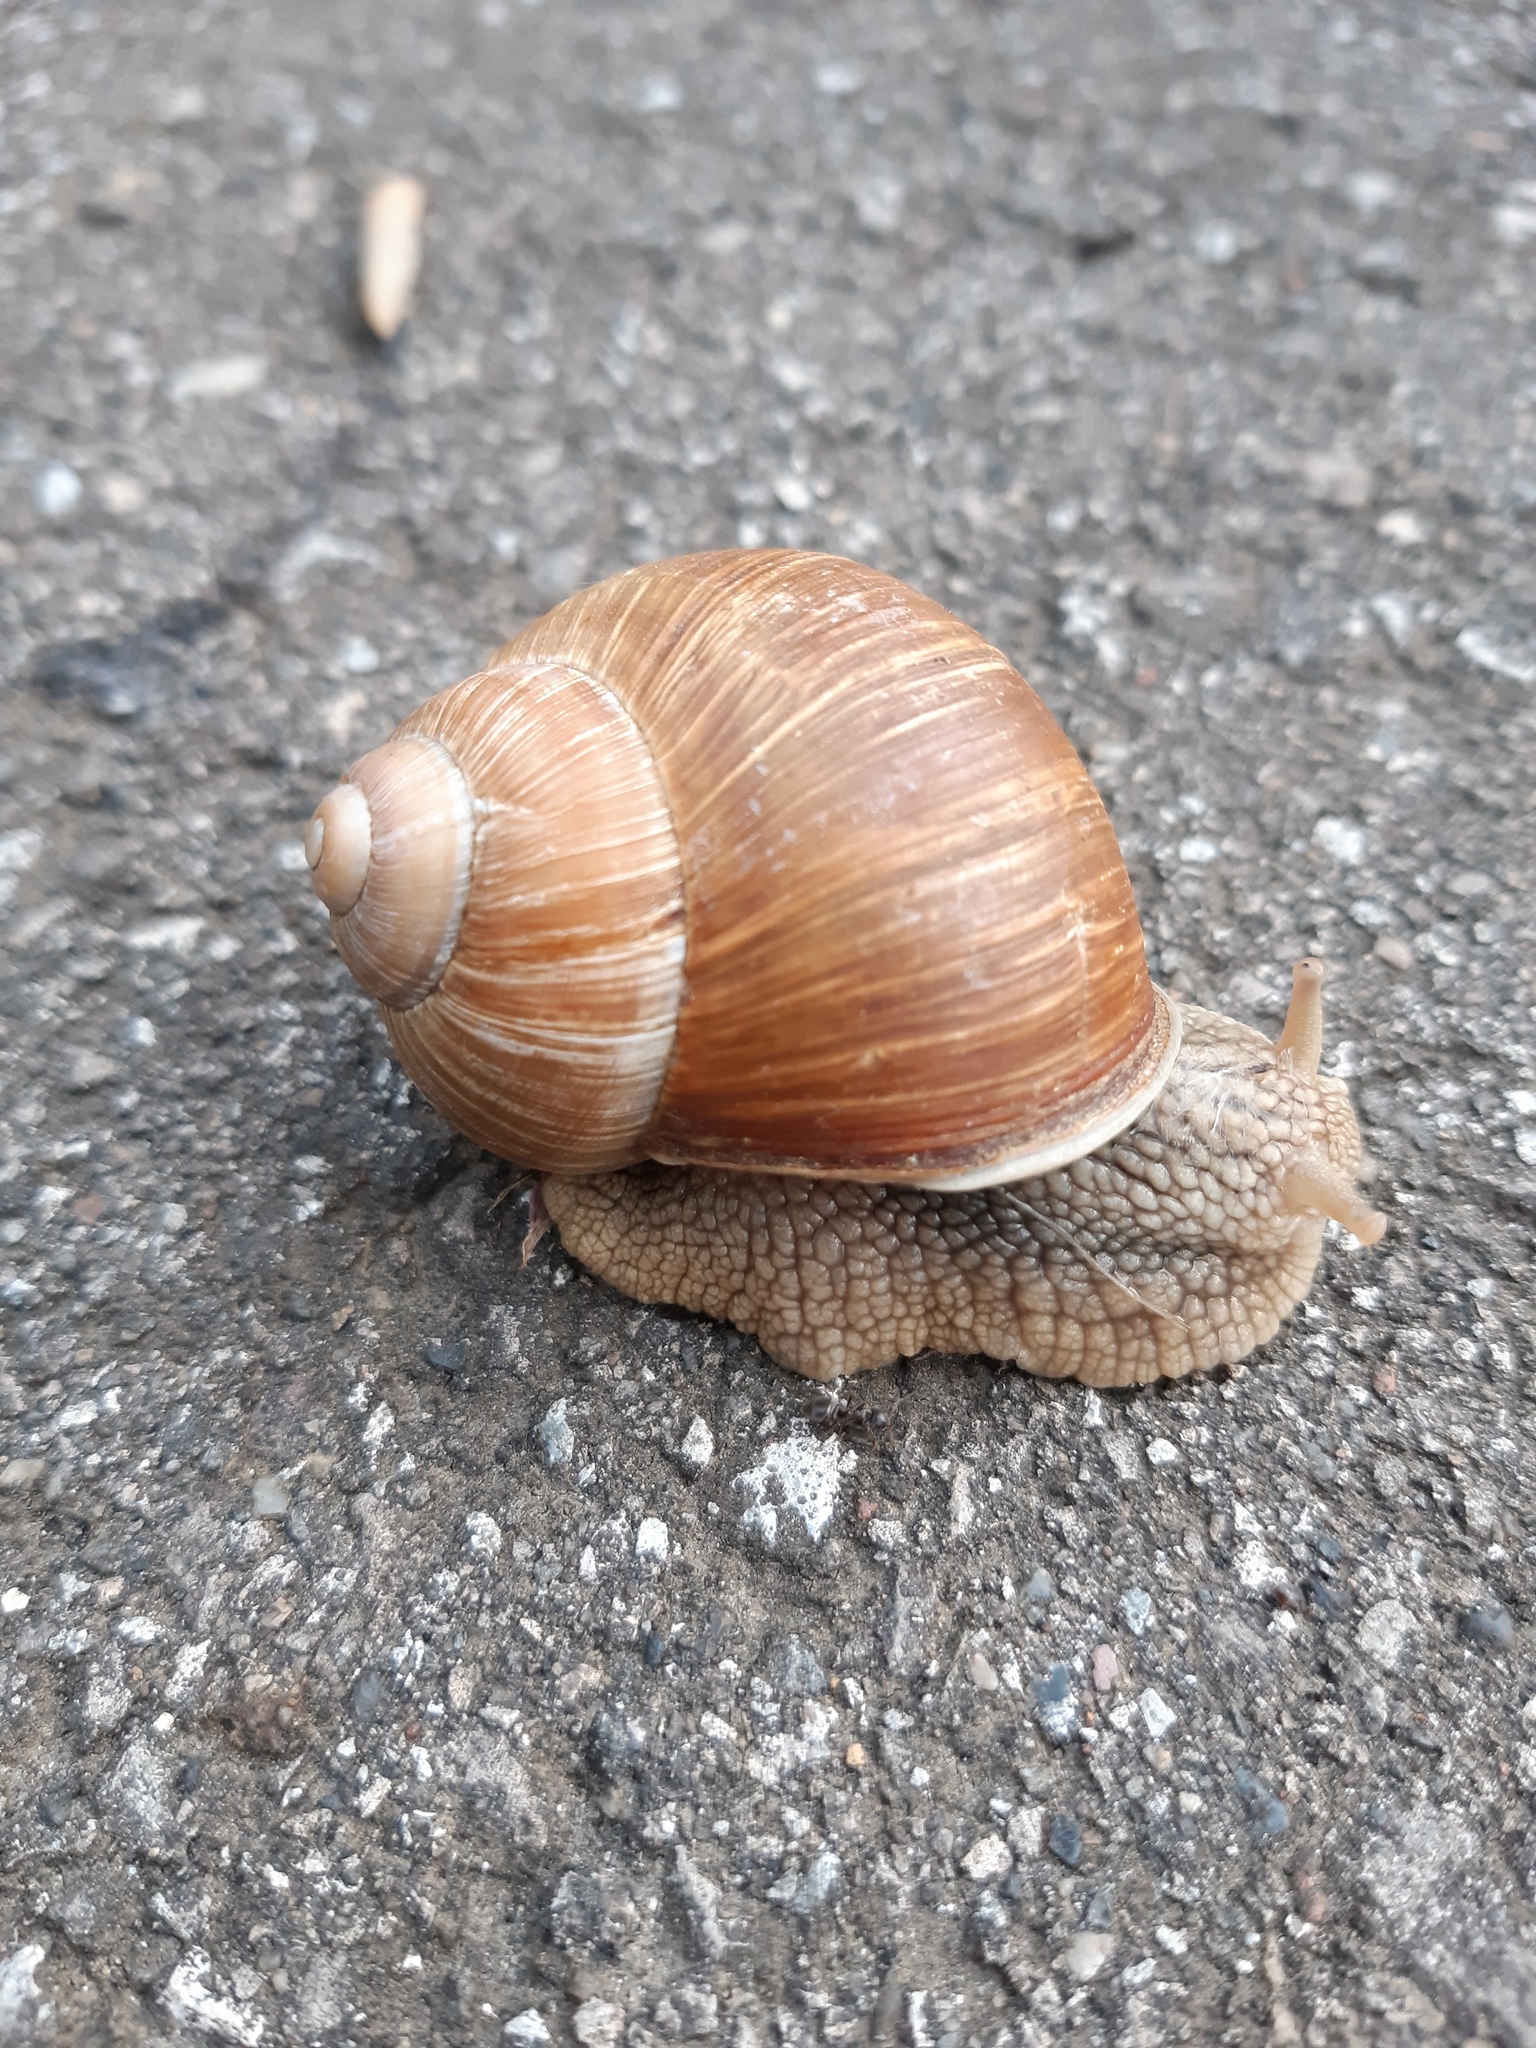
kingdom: Animalia
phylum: Mollusca
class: Gastropoda
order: Stylommatophora
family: Helicidae
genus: Helix
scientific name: Helix pomatia
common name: Roman snail
